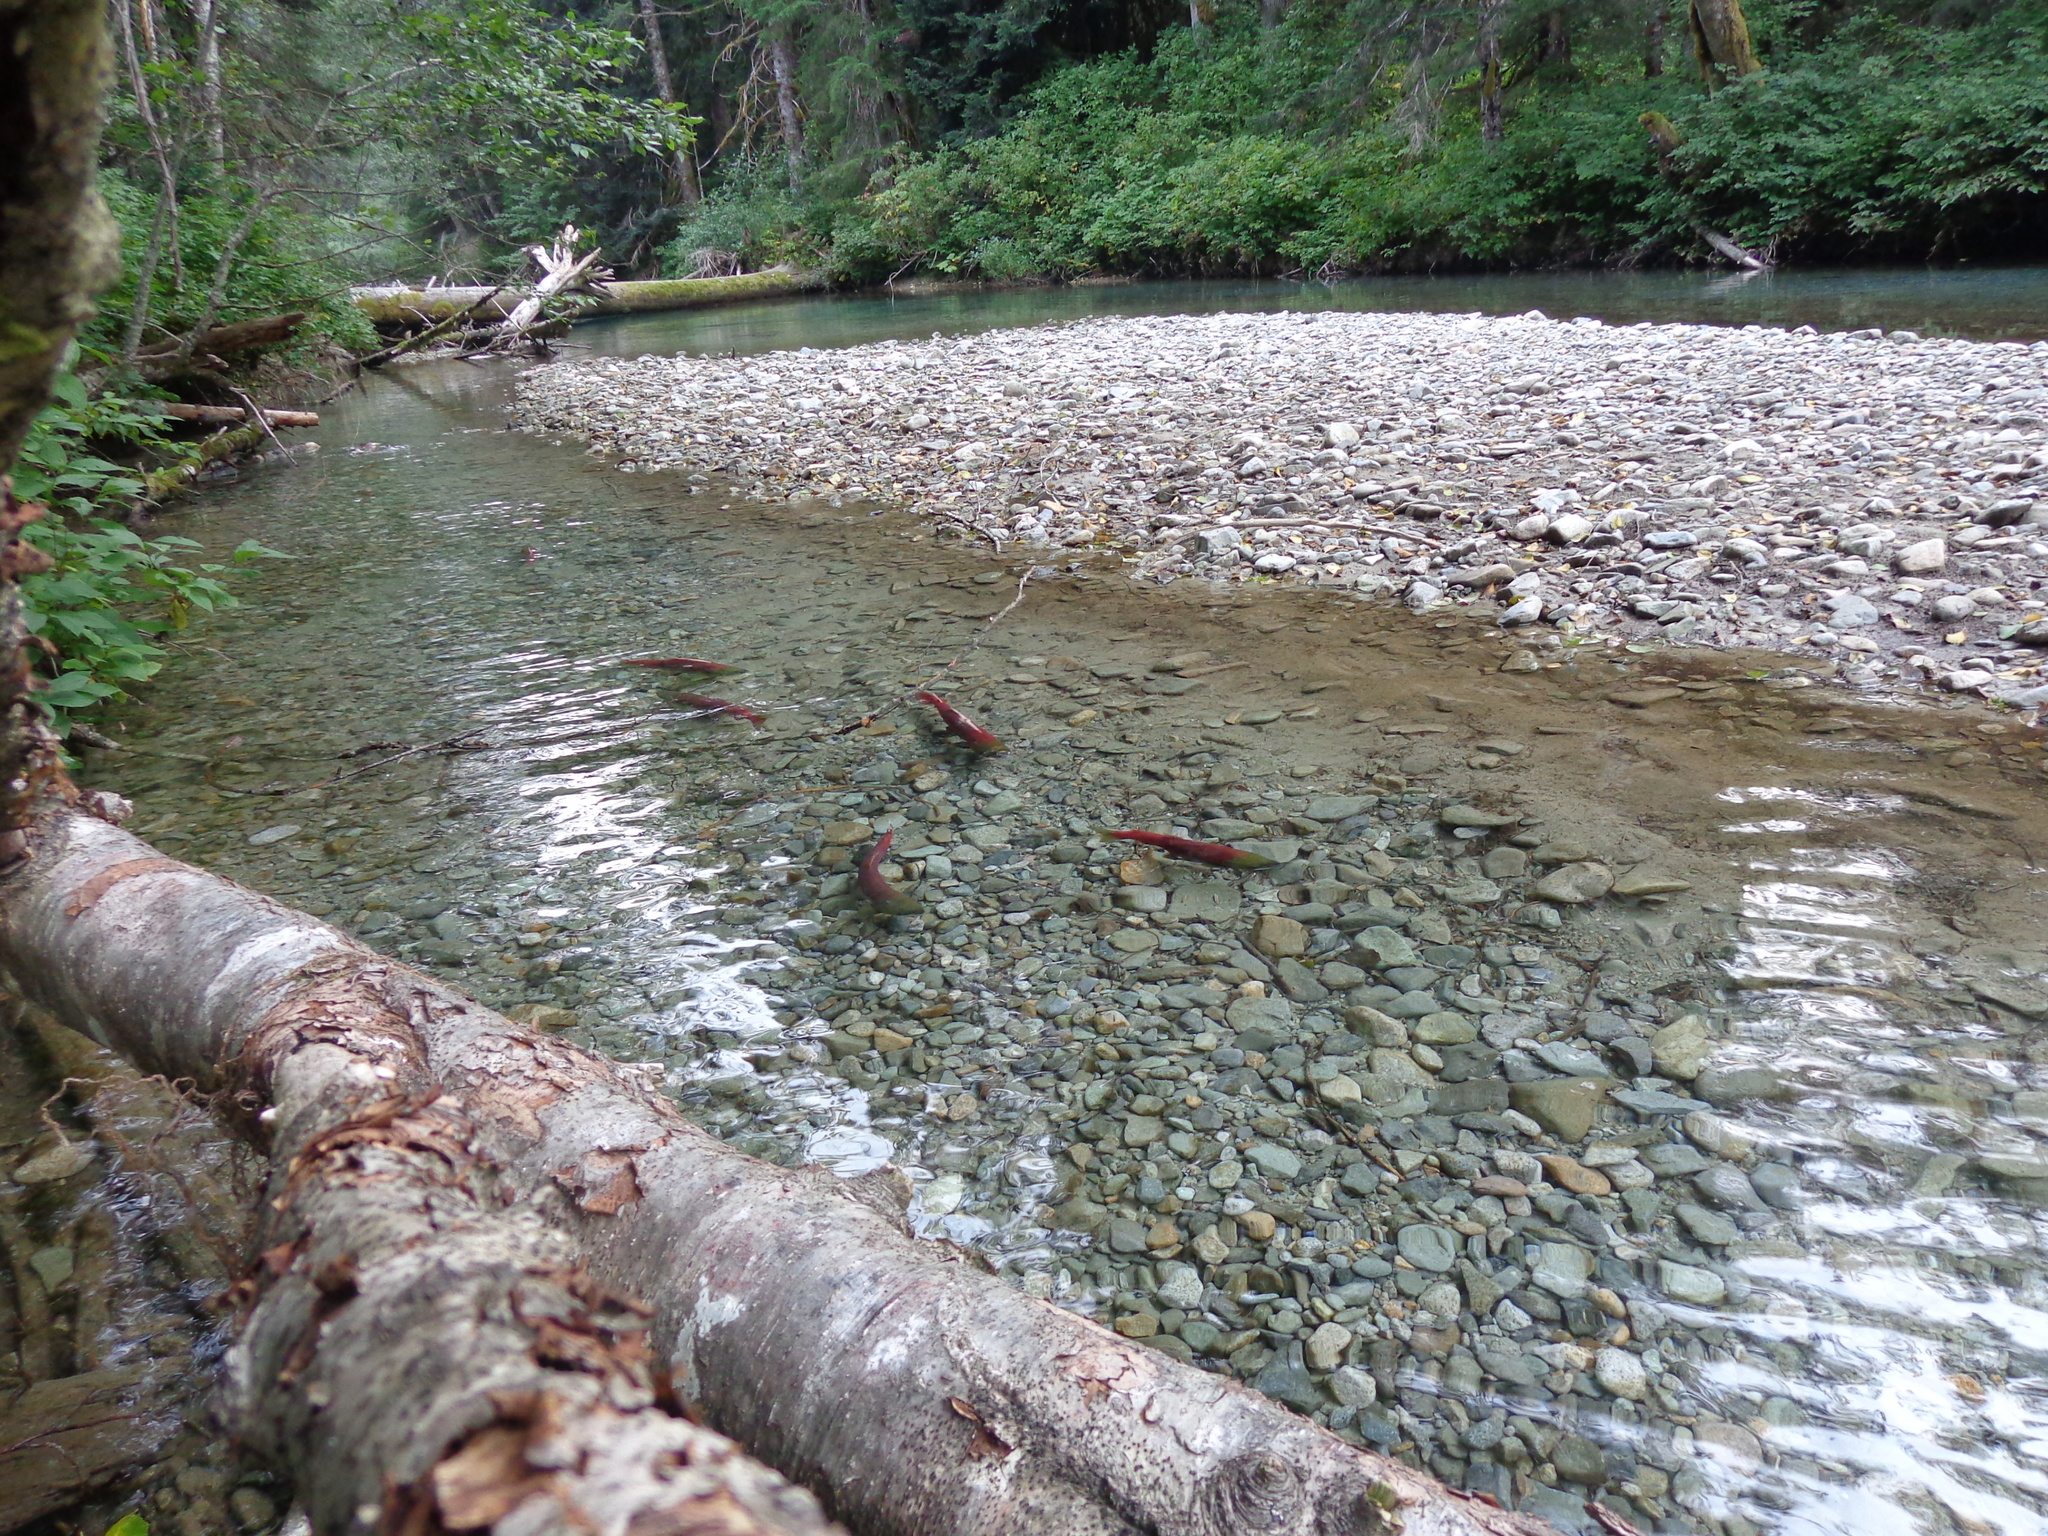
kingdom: Animalia
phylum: Chordata
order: Salmoniformes
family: Salmonidae
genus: Oncorhynchus
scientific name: Oncorhynchus nerka
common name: Sockeye salmon
